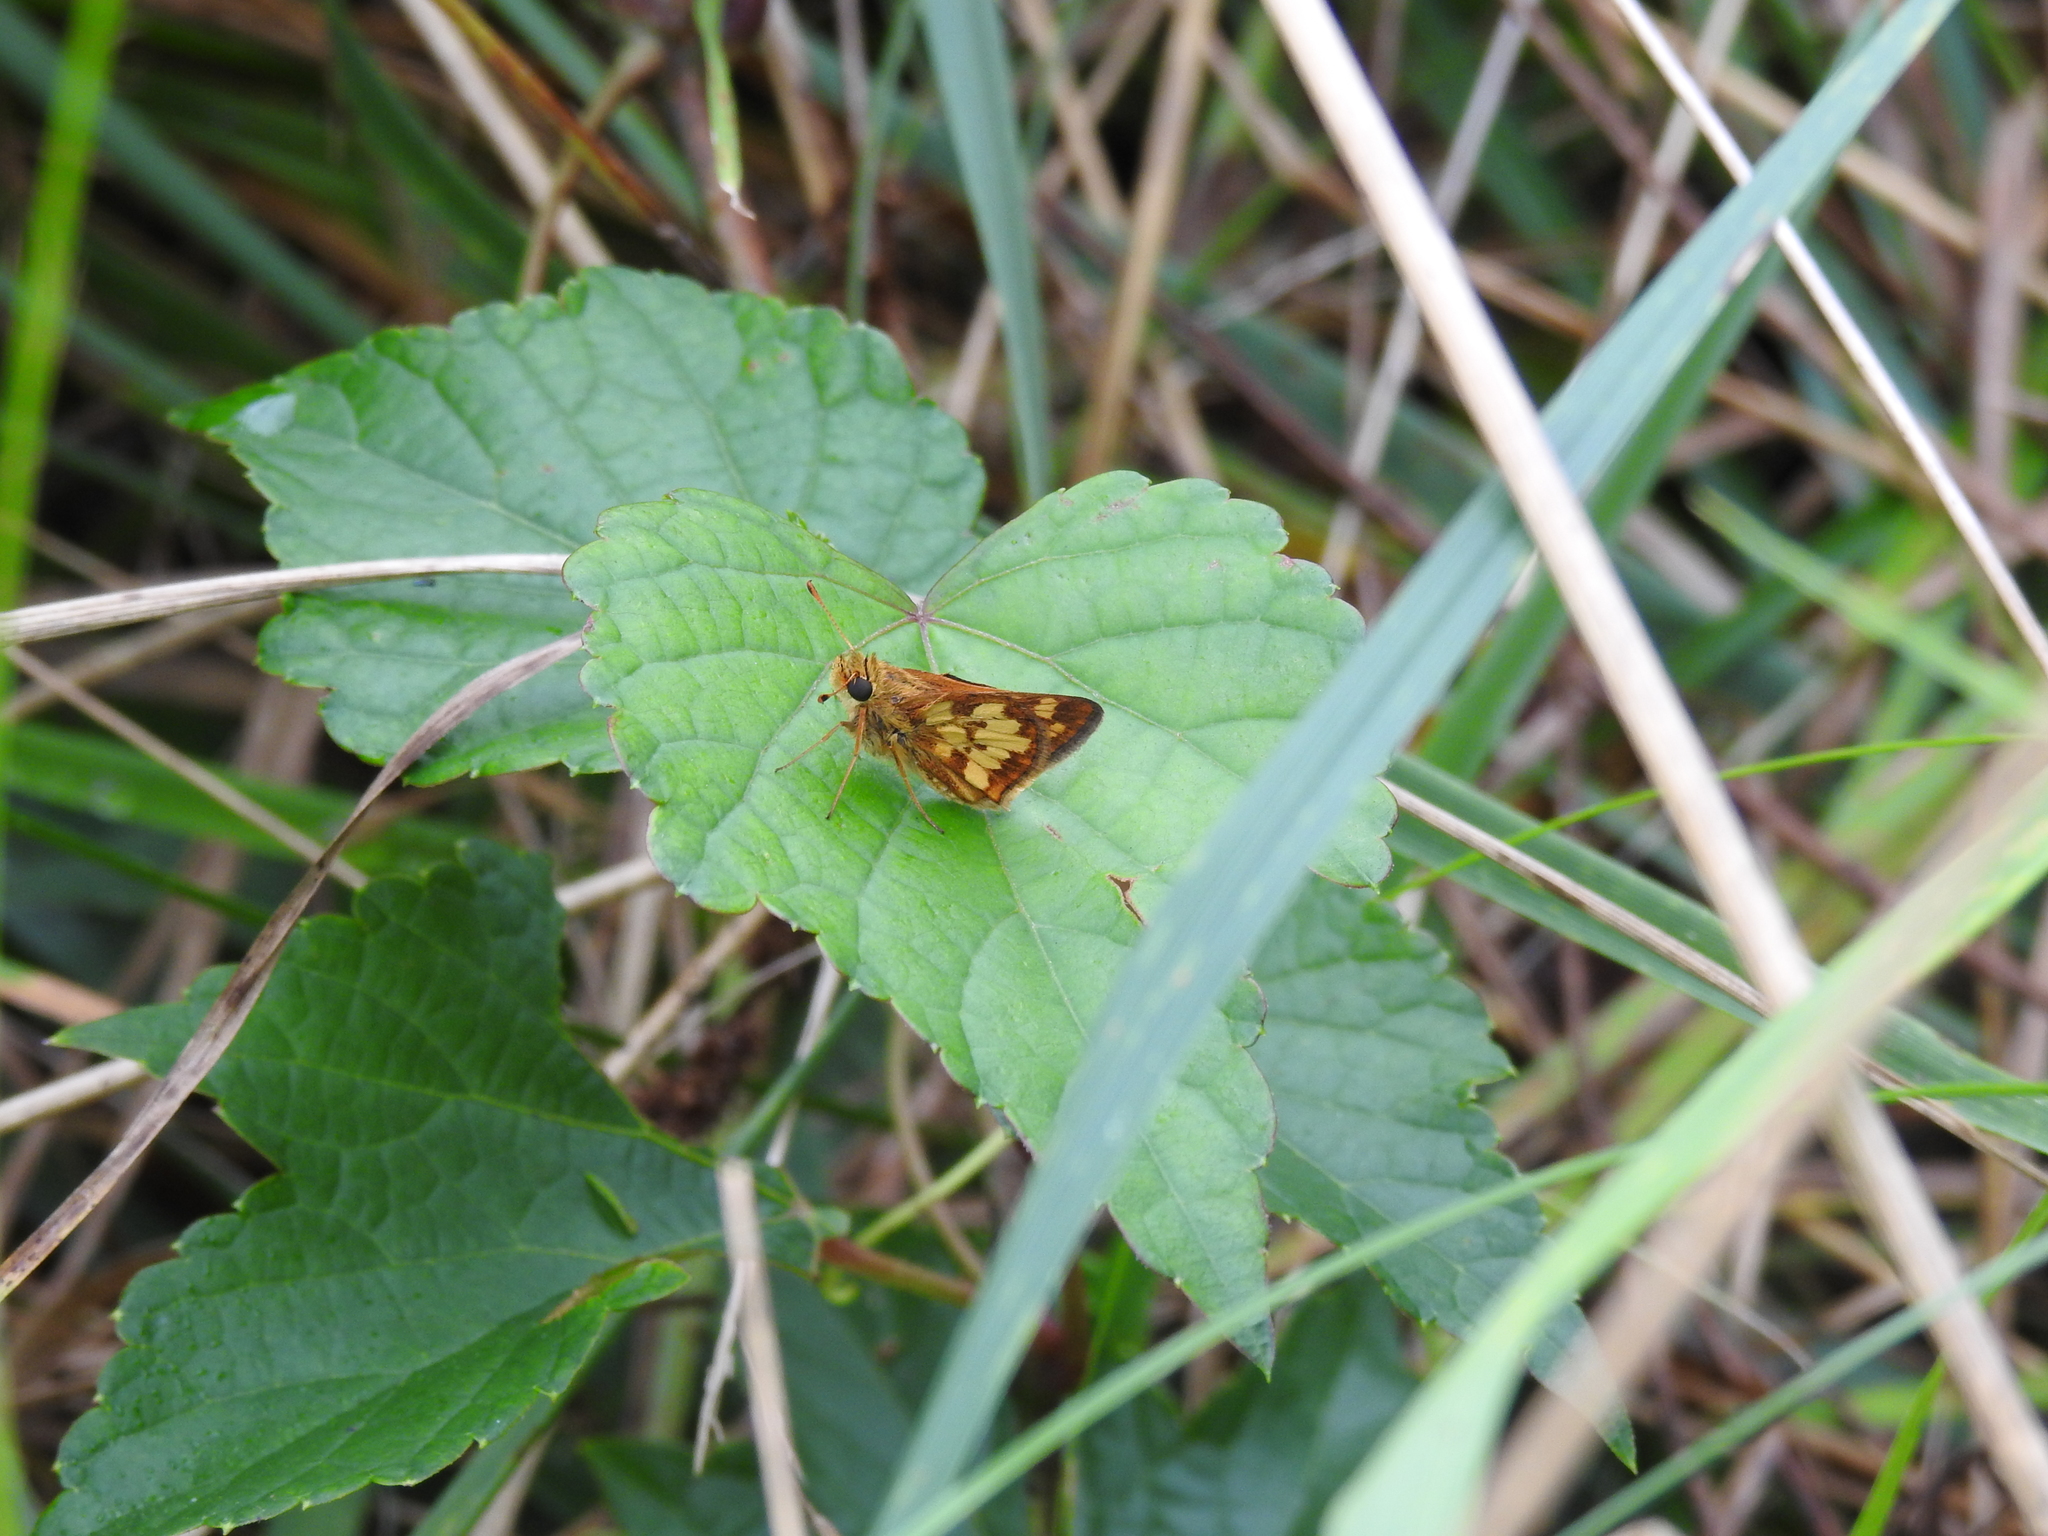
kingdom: Animalia
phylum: Arthropoda
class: Insecta
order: Lepidoptera
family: Hesperiidae
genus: Polites
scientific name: Polites coras
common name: Peck's skipper
